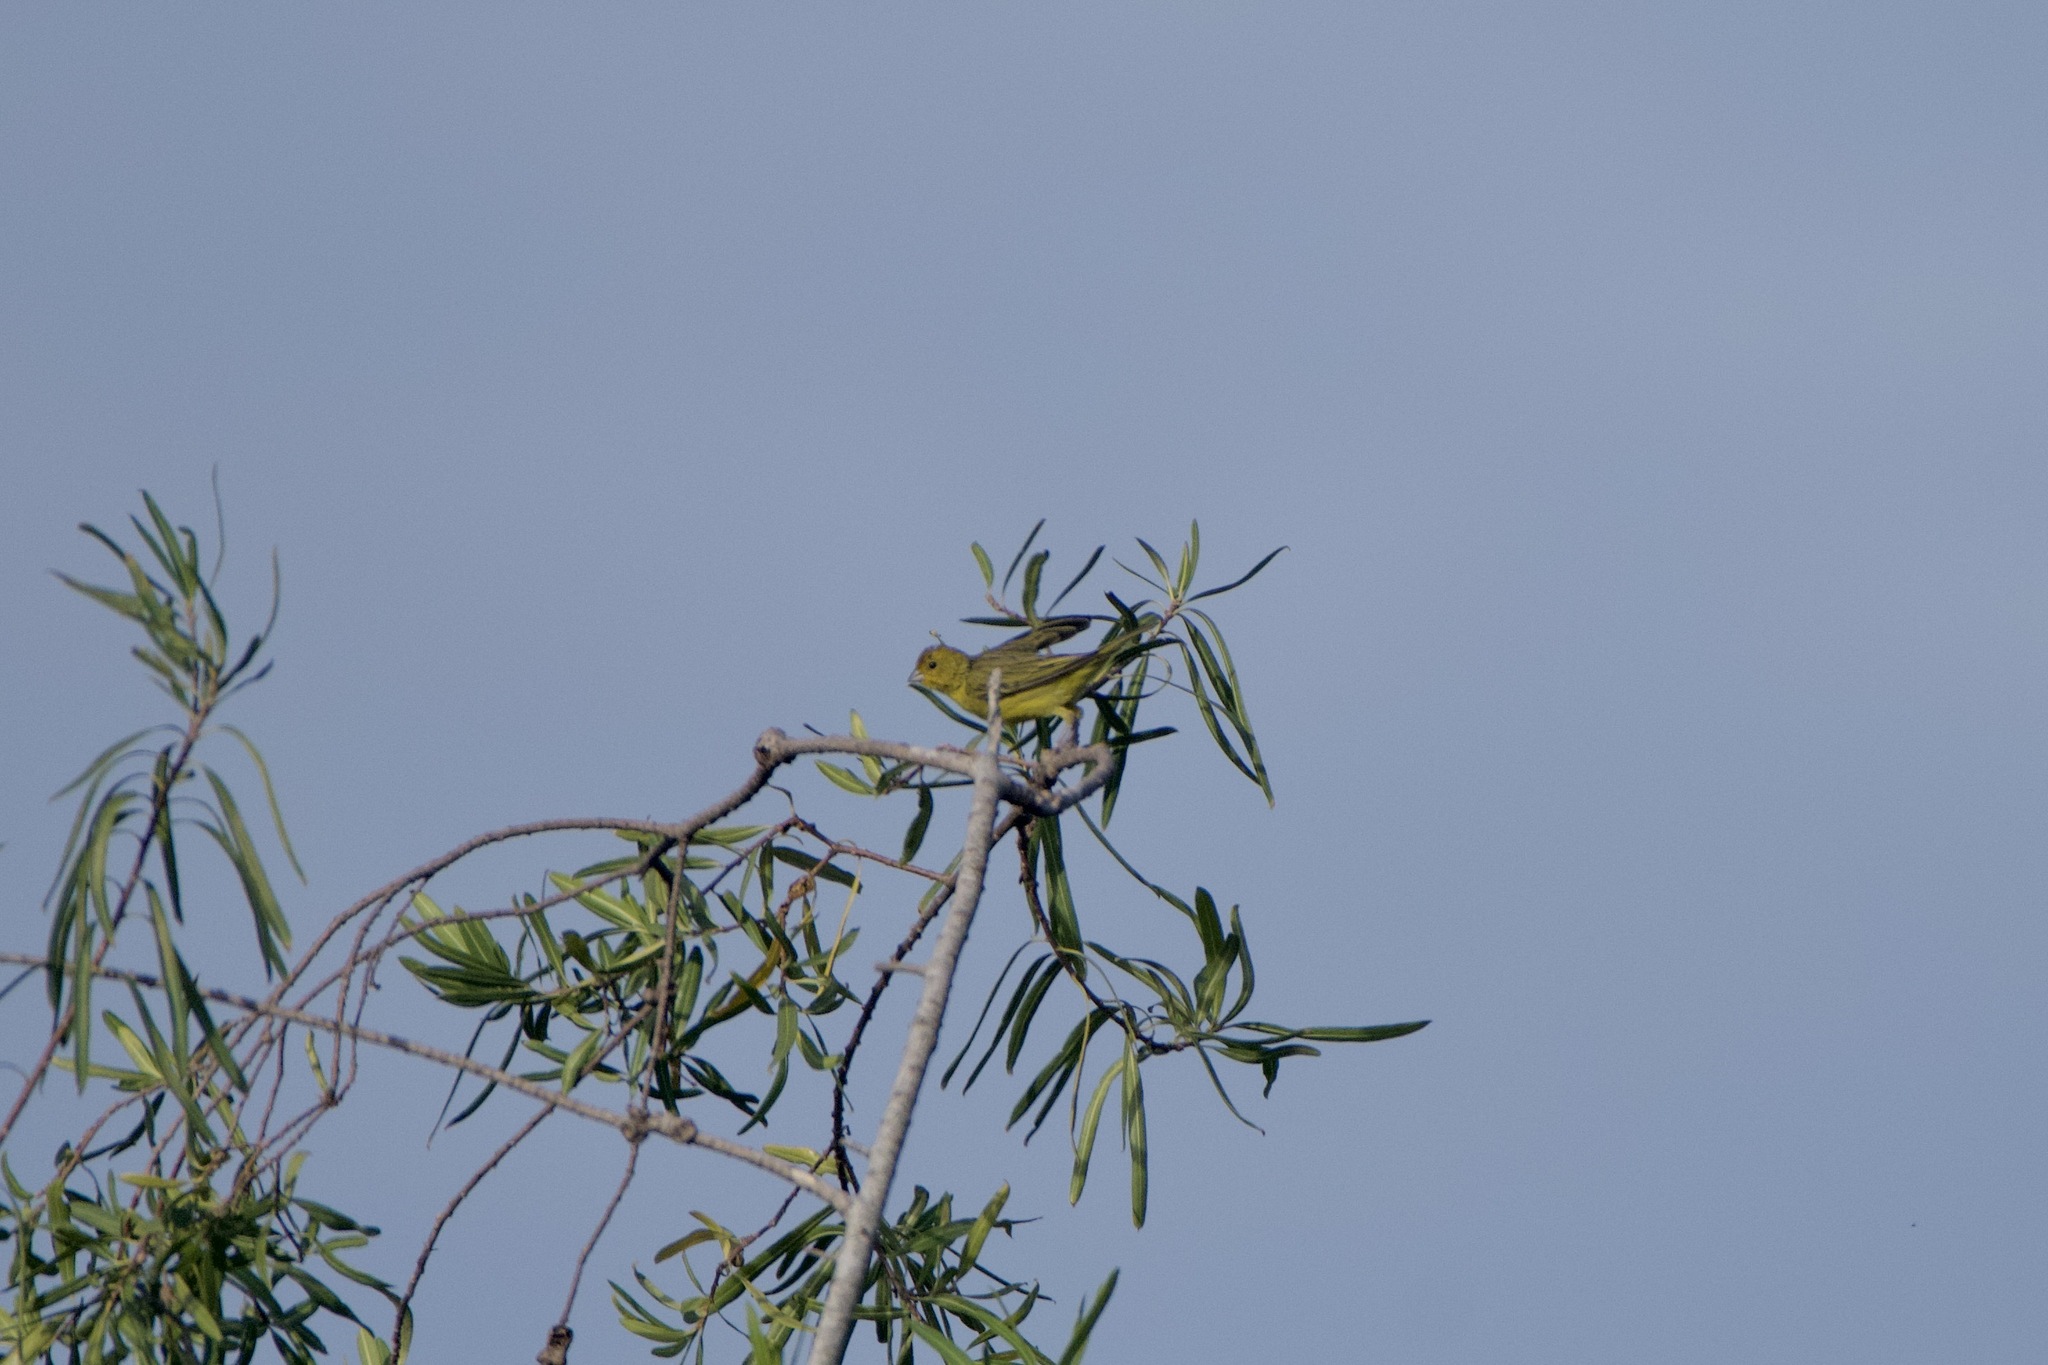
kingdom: Animalia
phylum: Chordata
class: Aves
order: Passeriformes
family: Thraupidae
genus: Sicalis
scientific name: Sicalis flaveola
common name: Saffron finch
